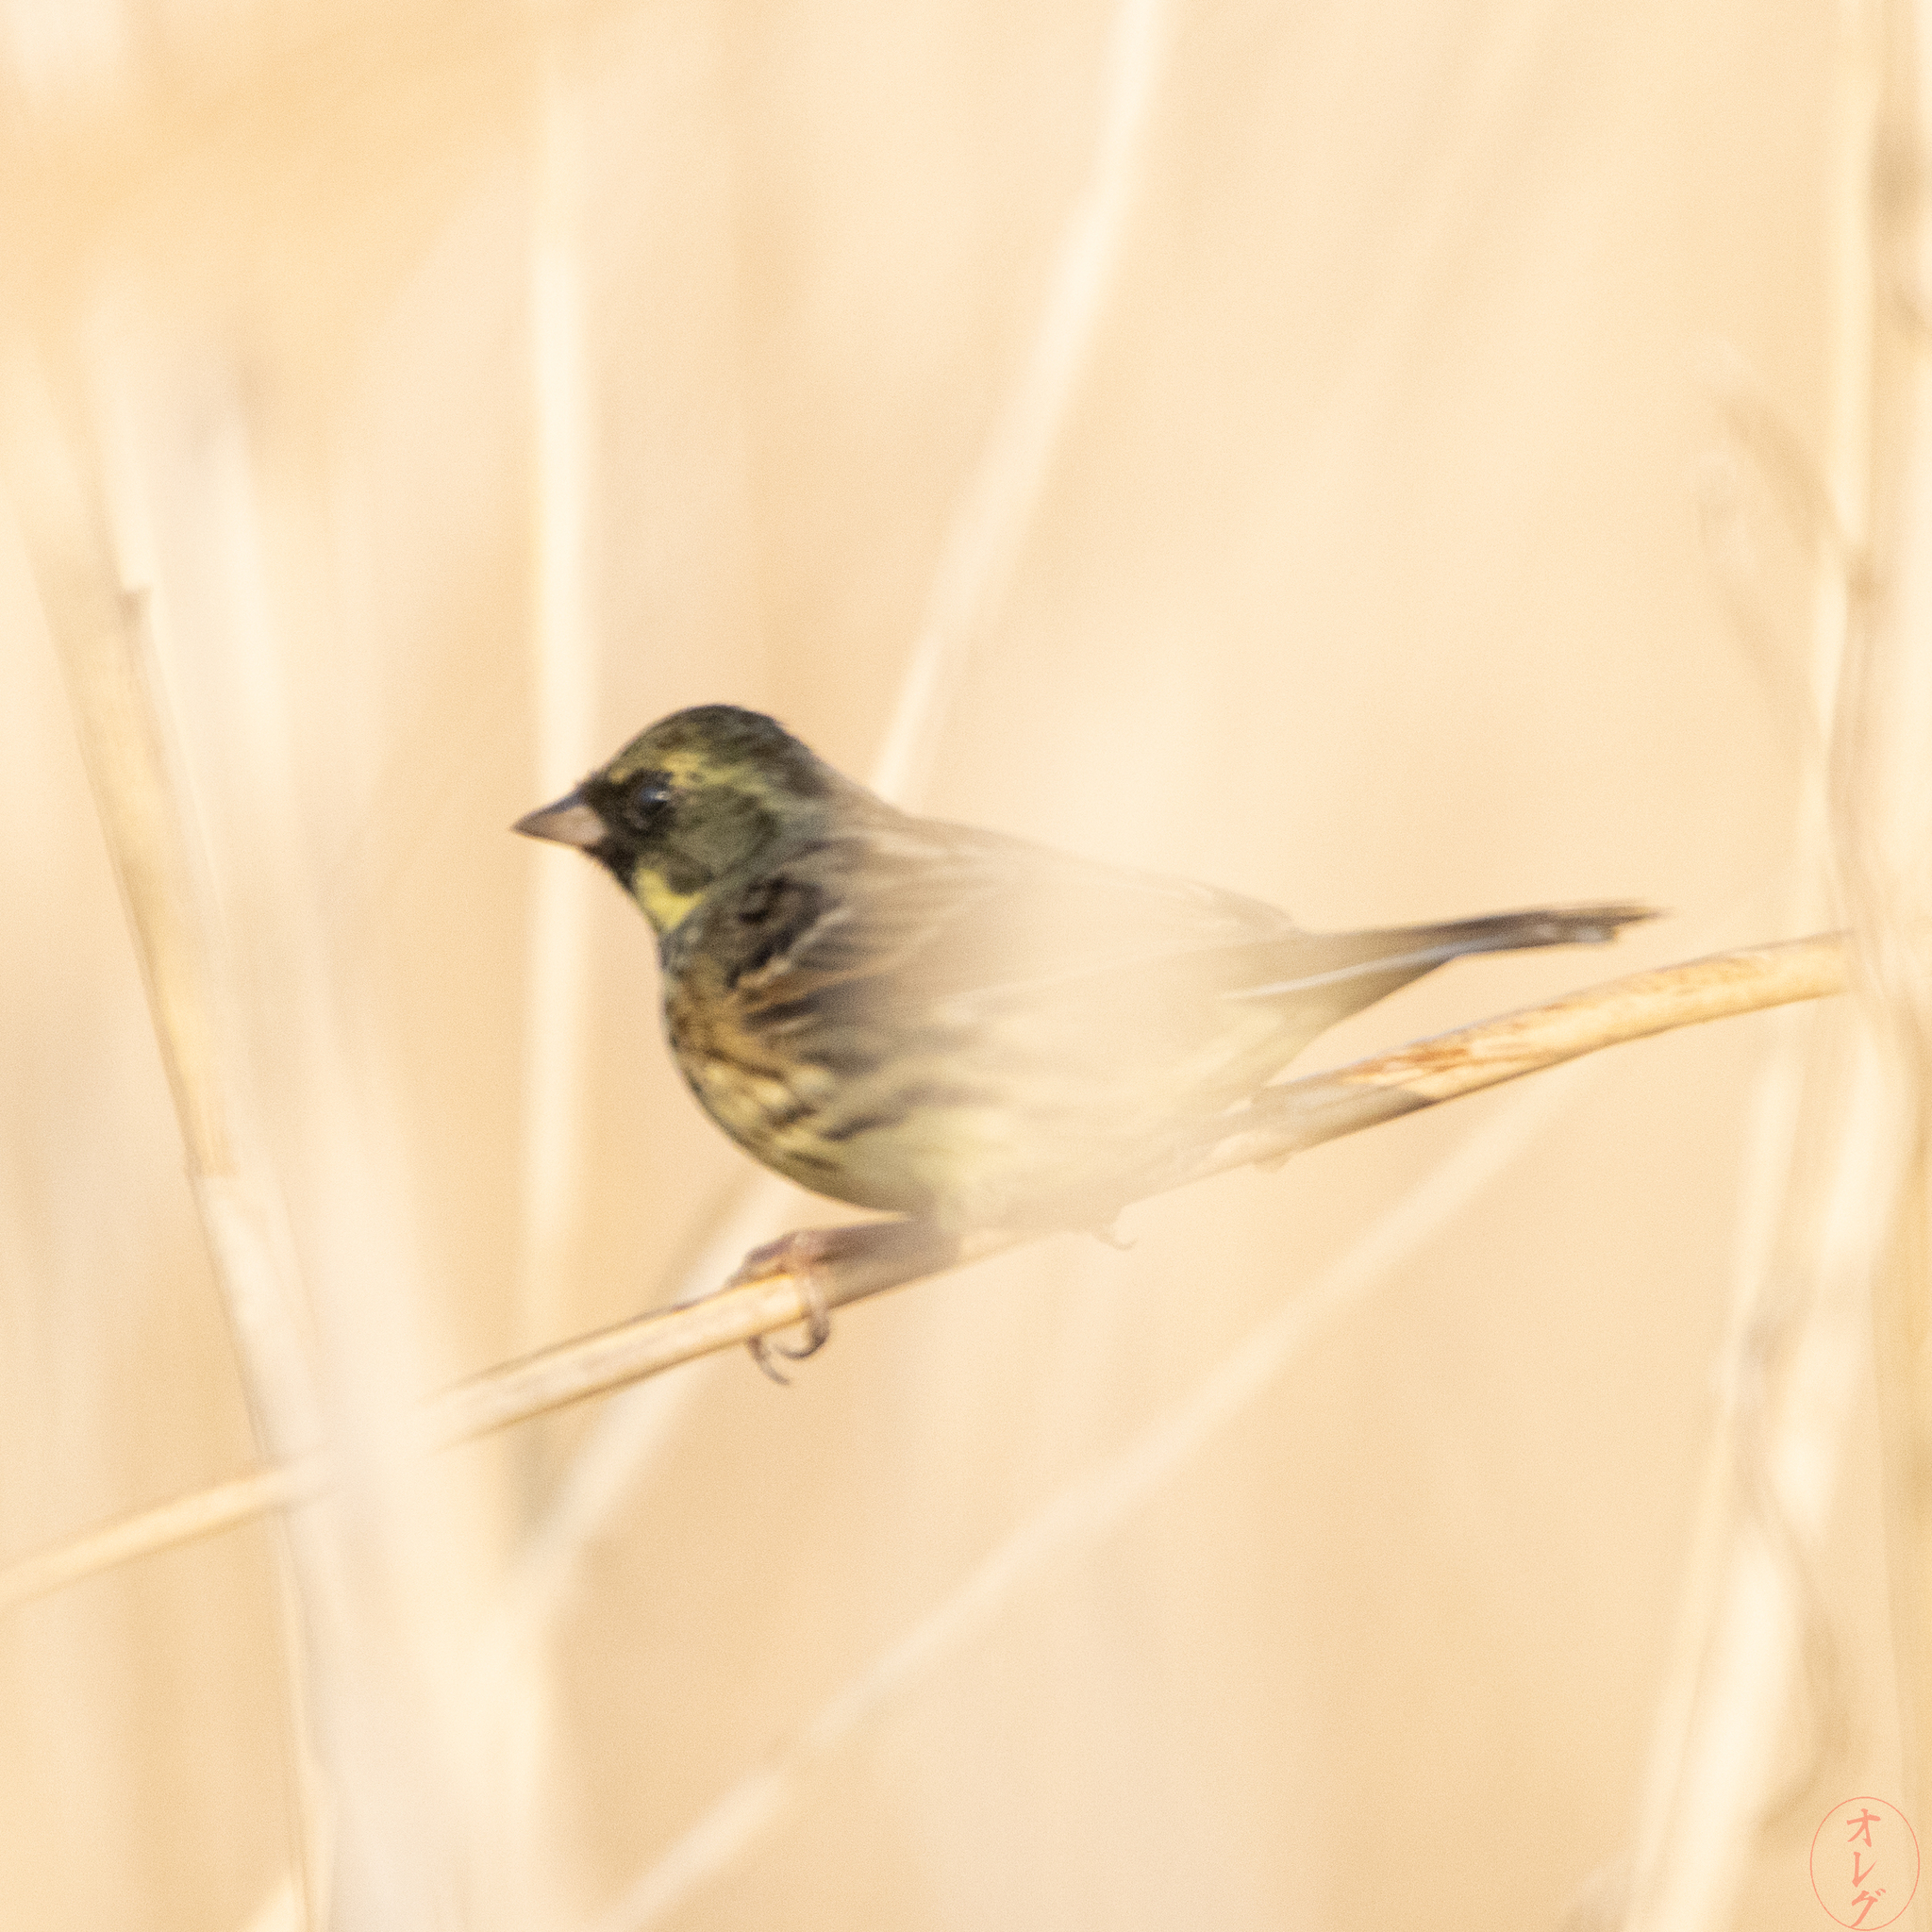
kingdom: Animalia
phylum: Chordata
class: Aves
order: Passeriformes
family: Emberizidae
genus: Emberiza
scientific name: Emberiza personata
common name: Masked bunting
